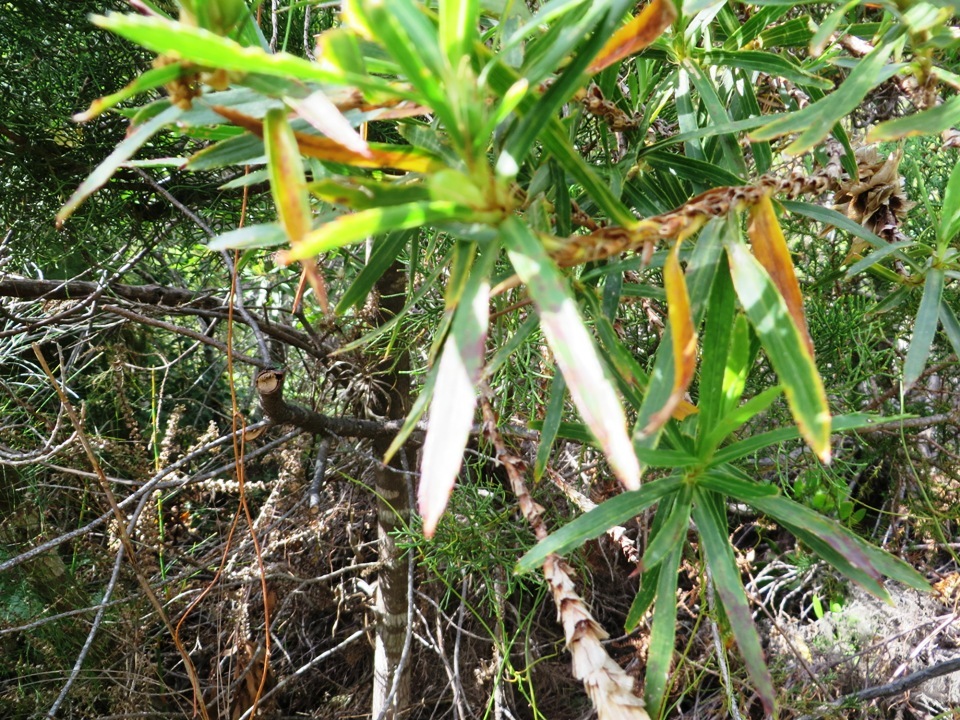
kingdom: Plantae
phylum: Tracheophyta
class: Magnoliopsida
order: Rosales
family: Rosaceae
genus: Cliffortia
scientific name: Cliffortia heterophylla
